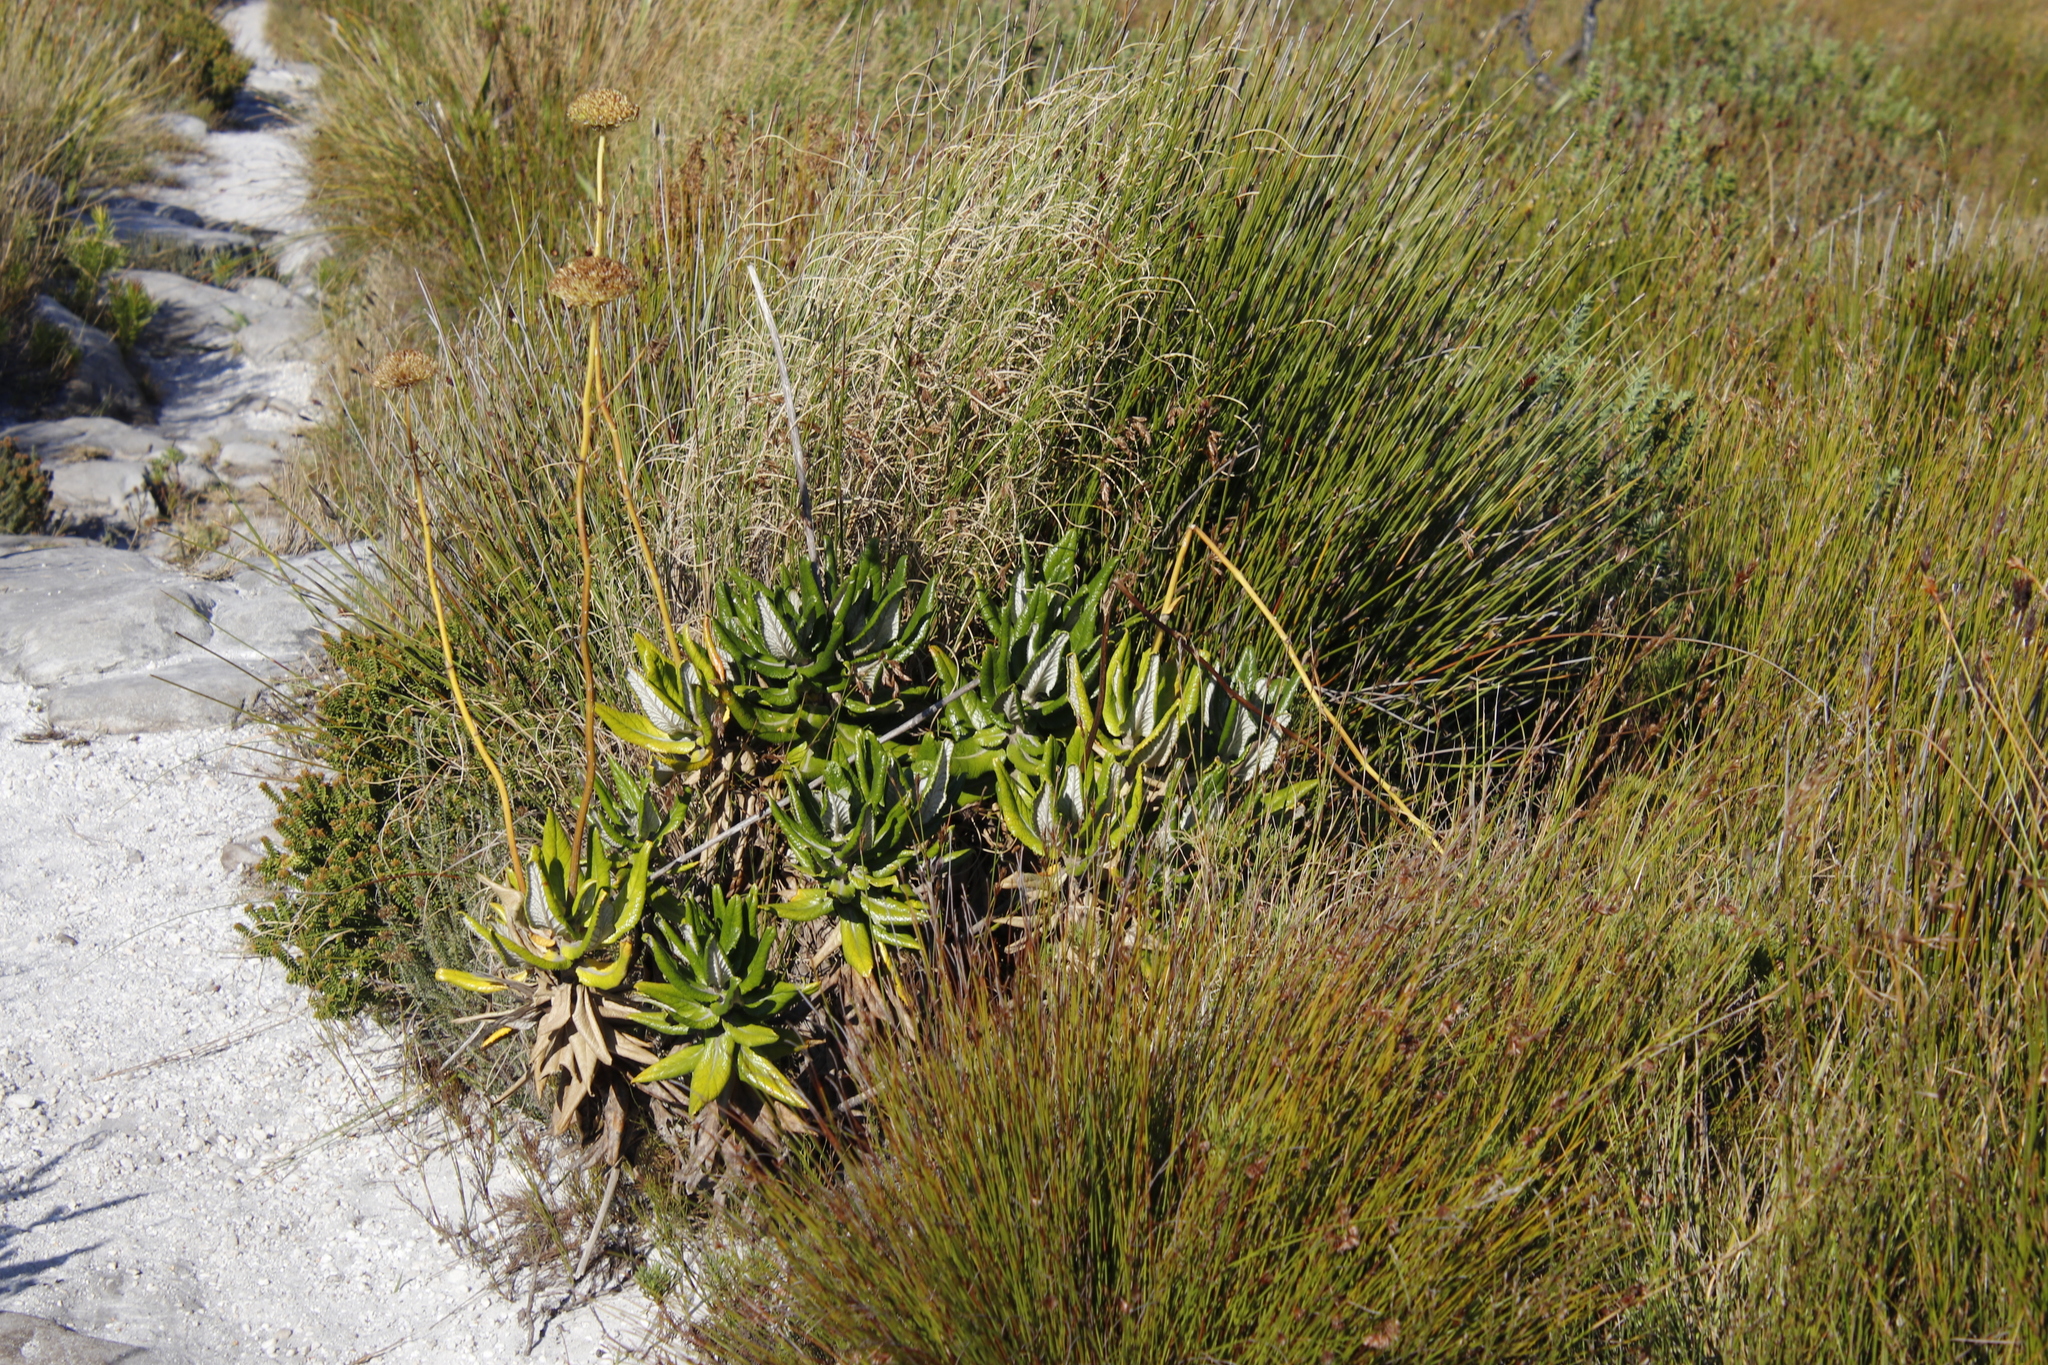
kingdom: Plantae
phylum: Tracheophyta
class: Magnoliopsida
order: Apiales
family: Apiaceae
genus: Hermas
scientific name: Hermas villosa
